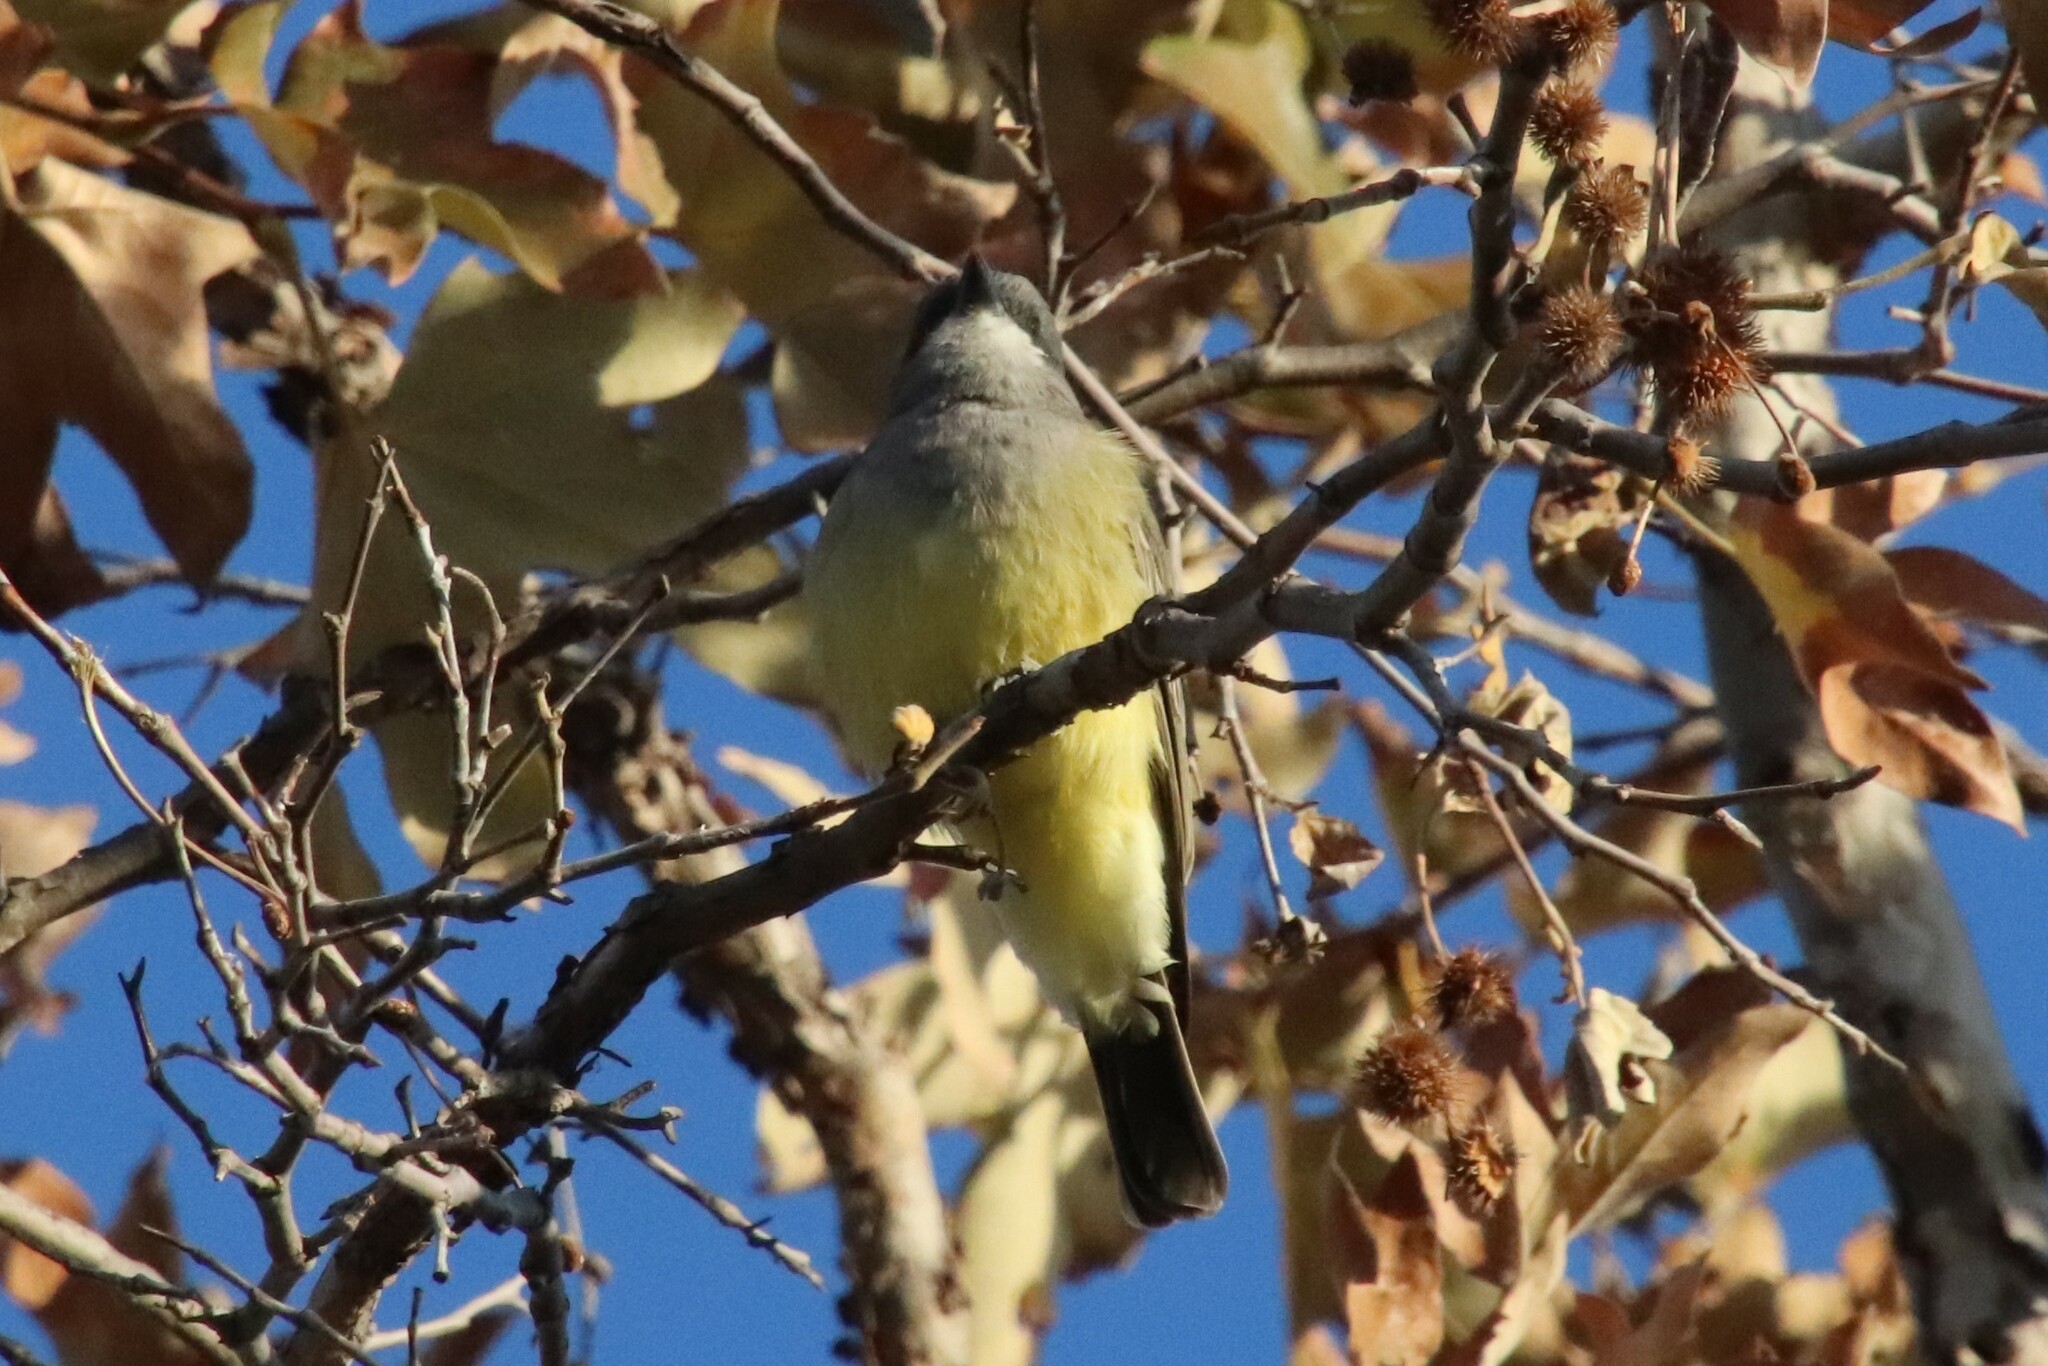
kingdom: Animalia
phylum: Chordata
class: Aves
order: Passeriformes
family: Tyrannidae
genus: Tyrannus
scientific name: Tyrannus vociferans
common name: Cassin's kingbird
